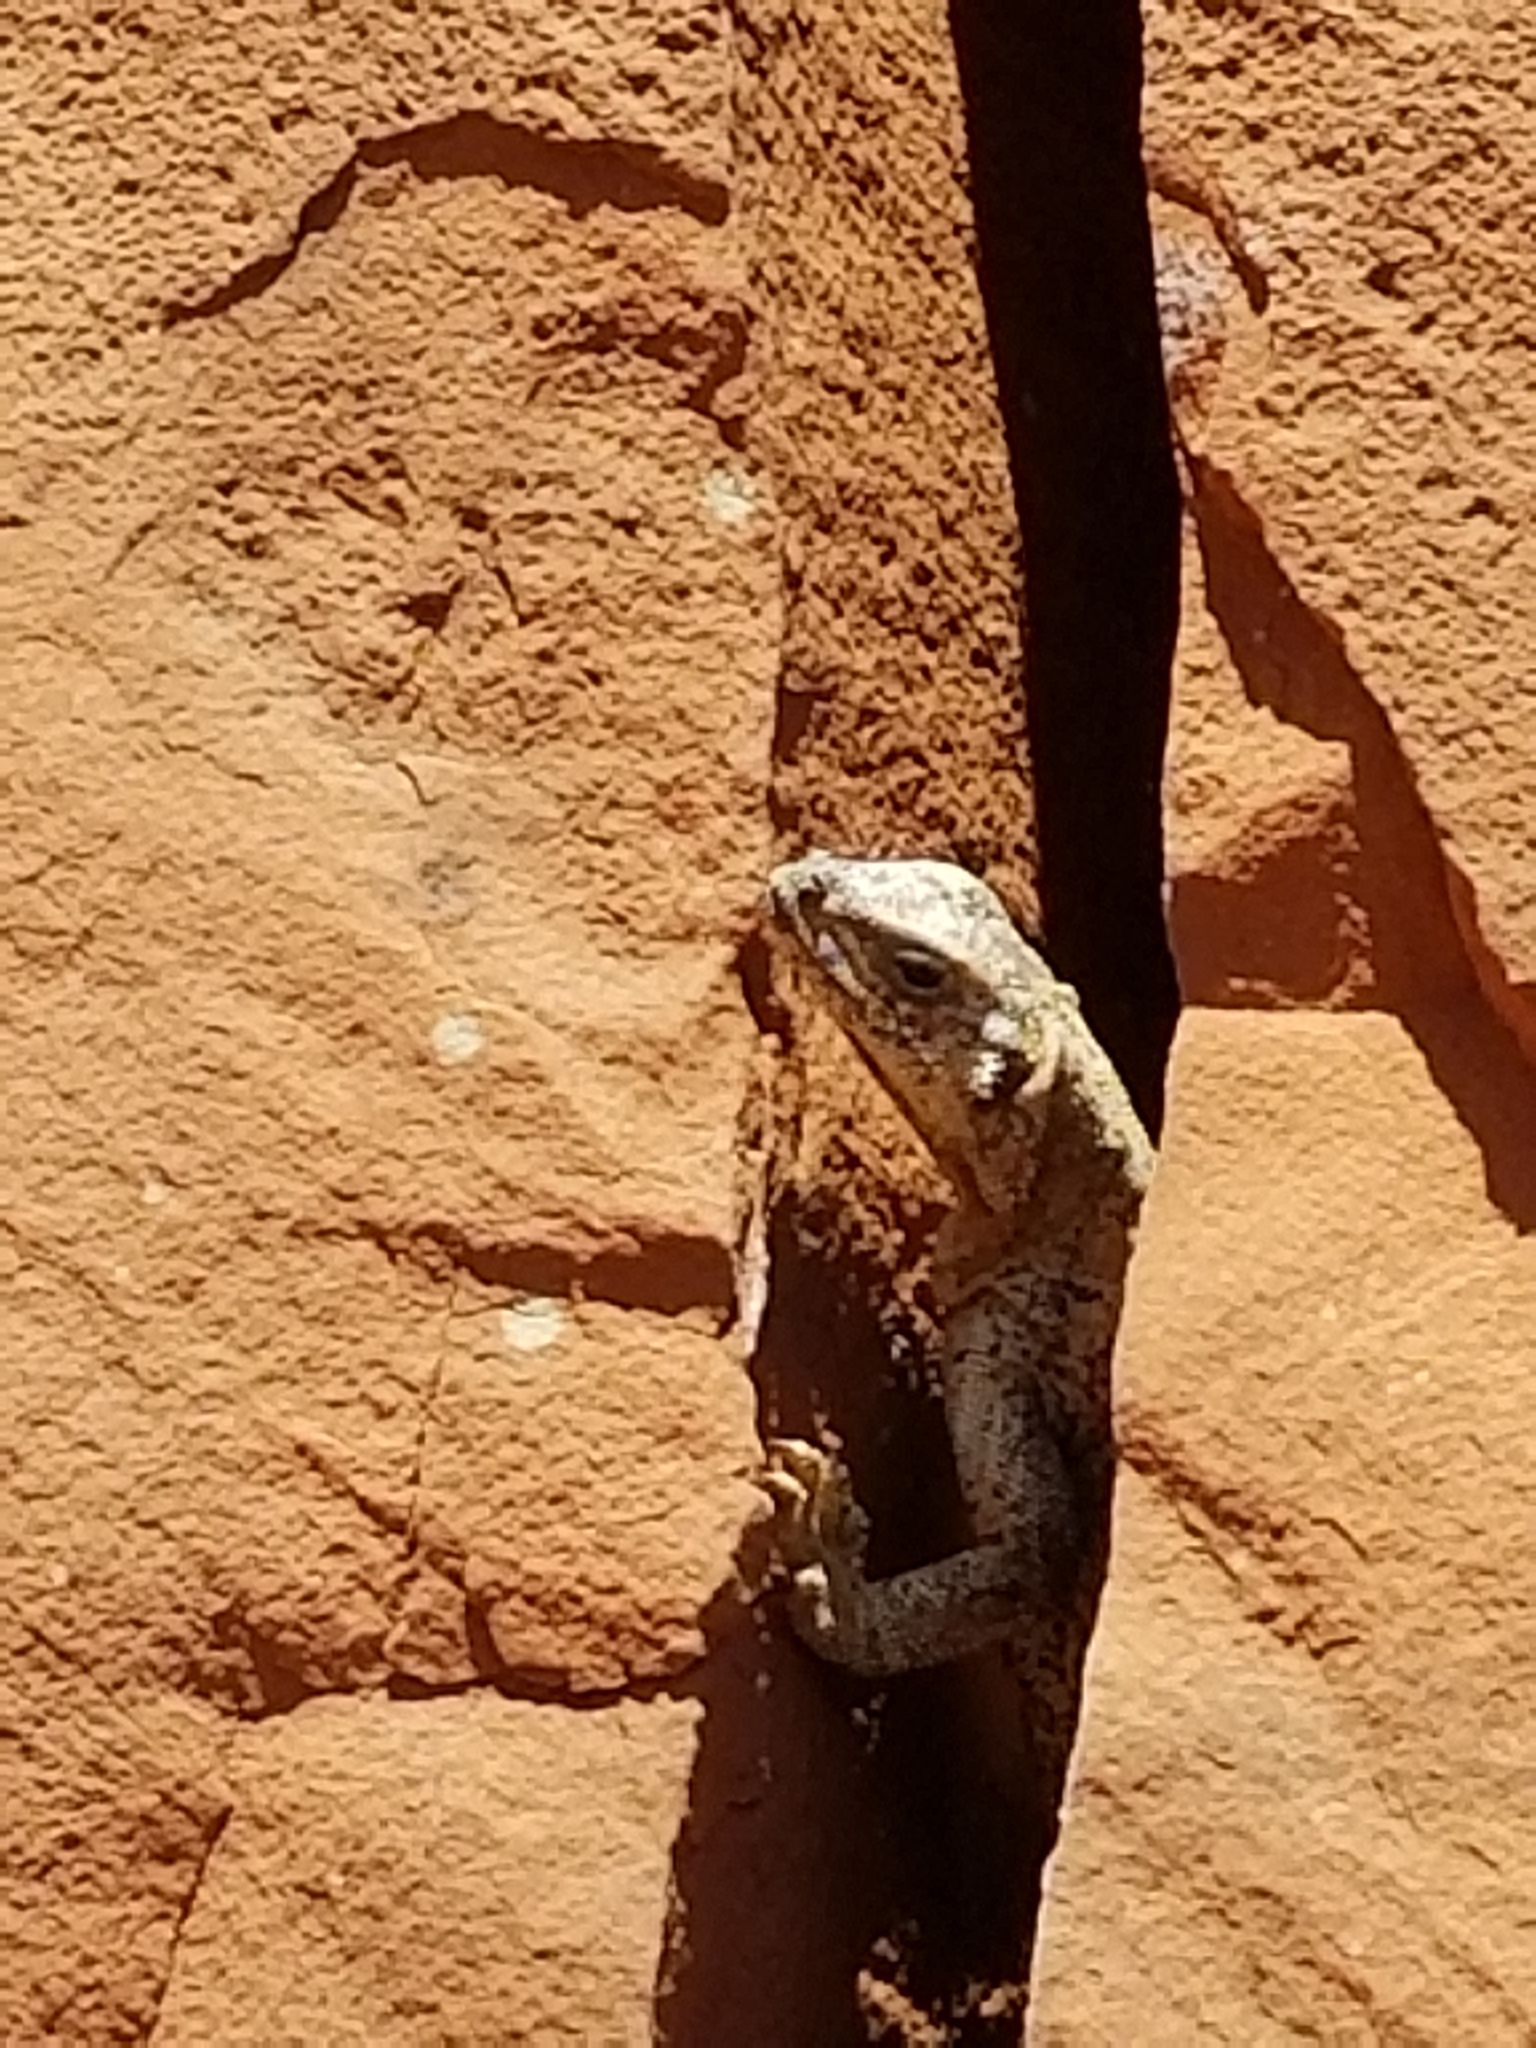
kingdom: Animalia
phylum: Chordata
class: Squamata
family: Iguanidae
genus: Sauromalus
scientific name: Sauromalus ater
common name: Northern chuckwalla
